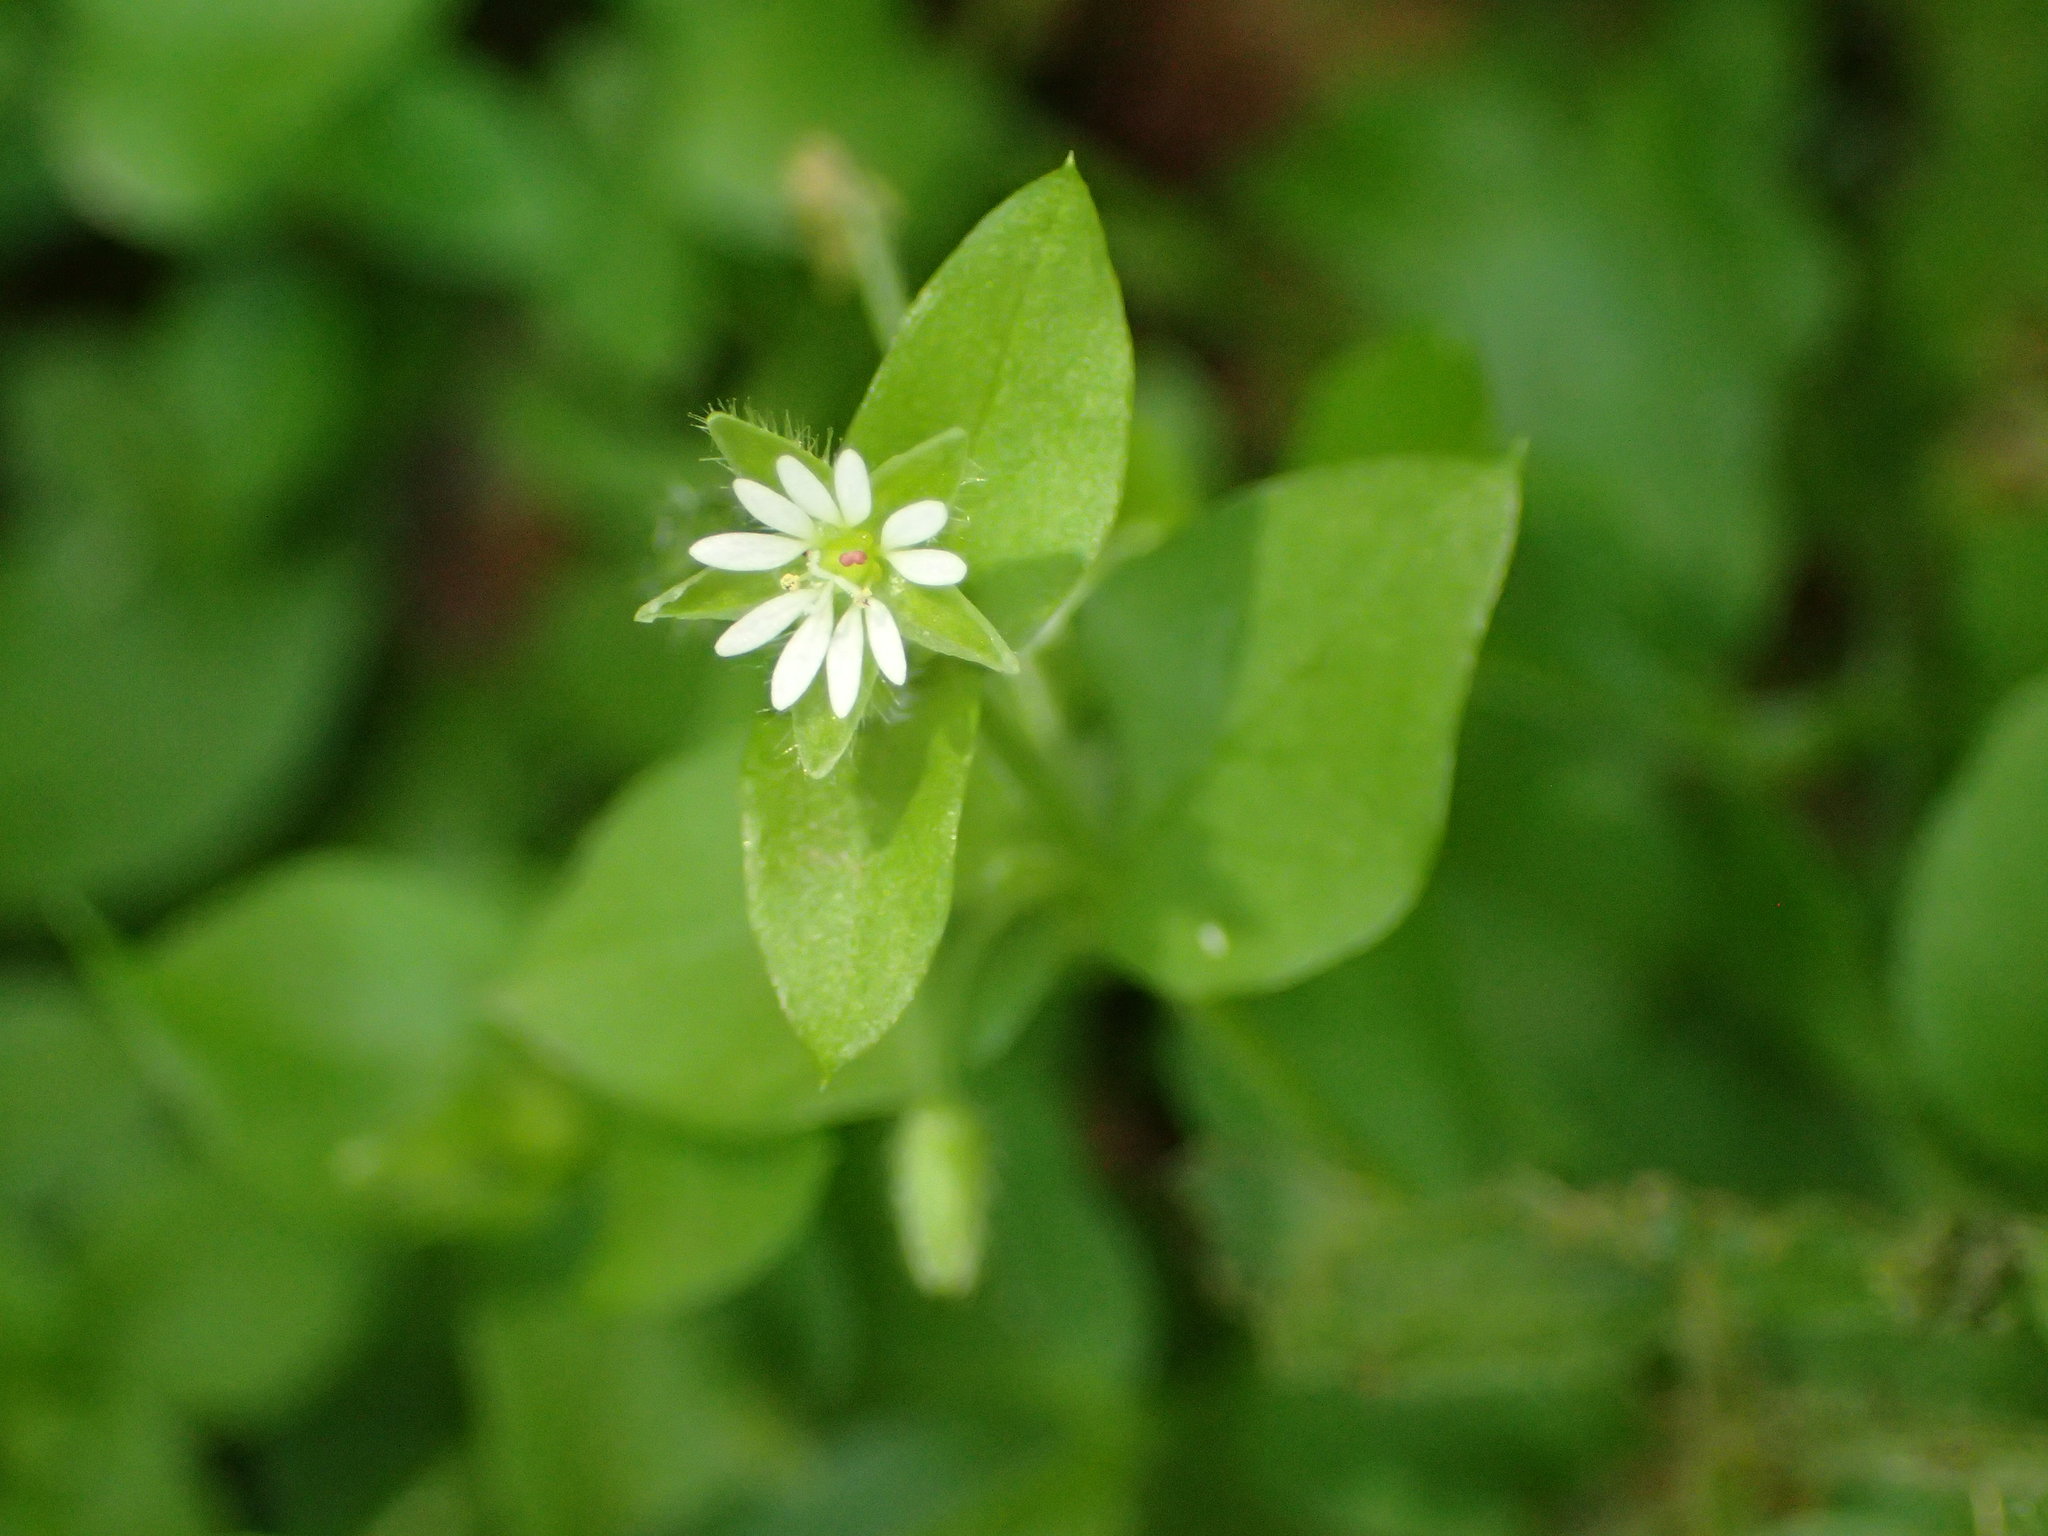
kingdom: Plantae
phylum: Tracheophyta
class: Magnoliopsida
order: Caryophyllales
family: Caryophyllaceae
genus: Stellaria
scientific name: Stellaria media
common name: Common chickweed
